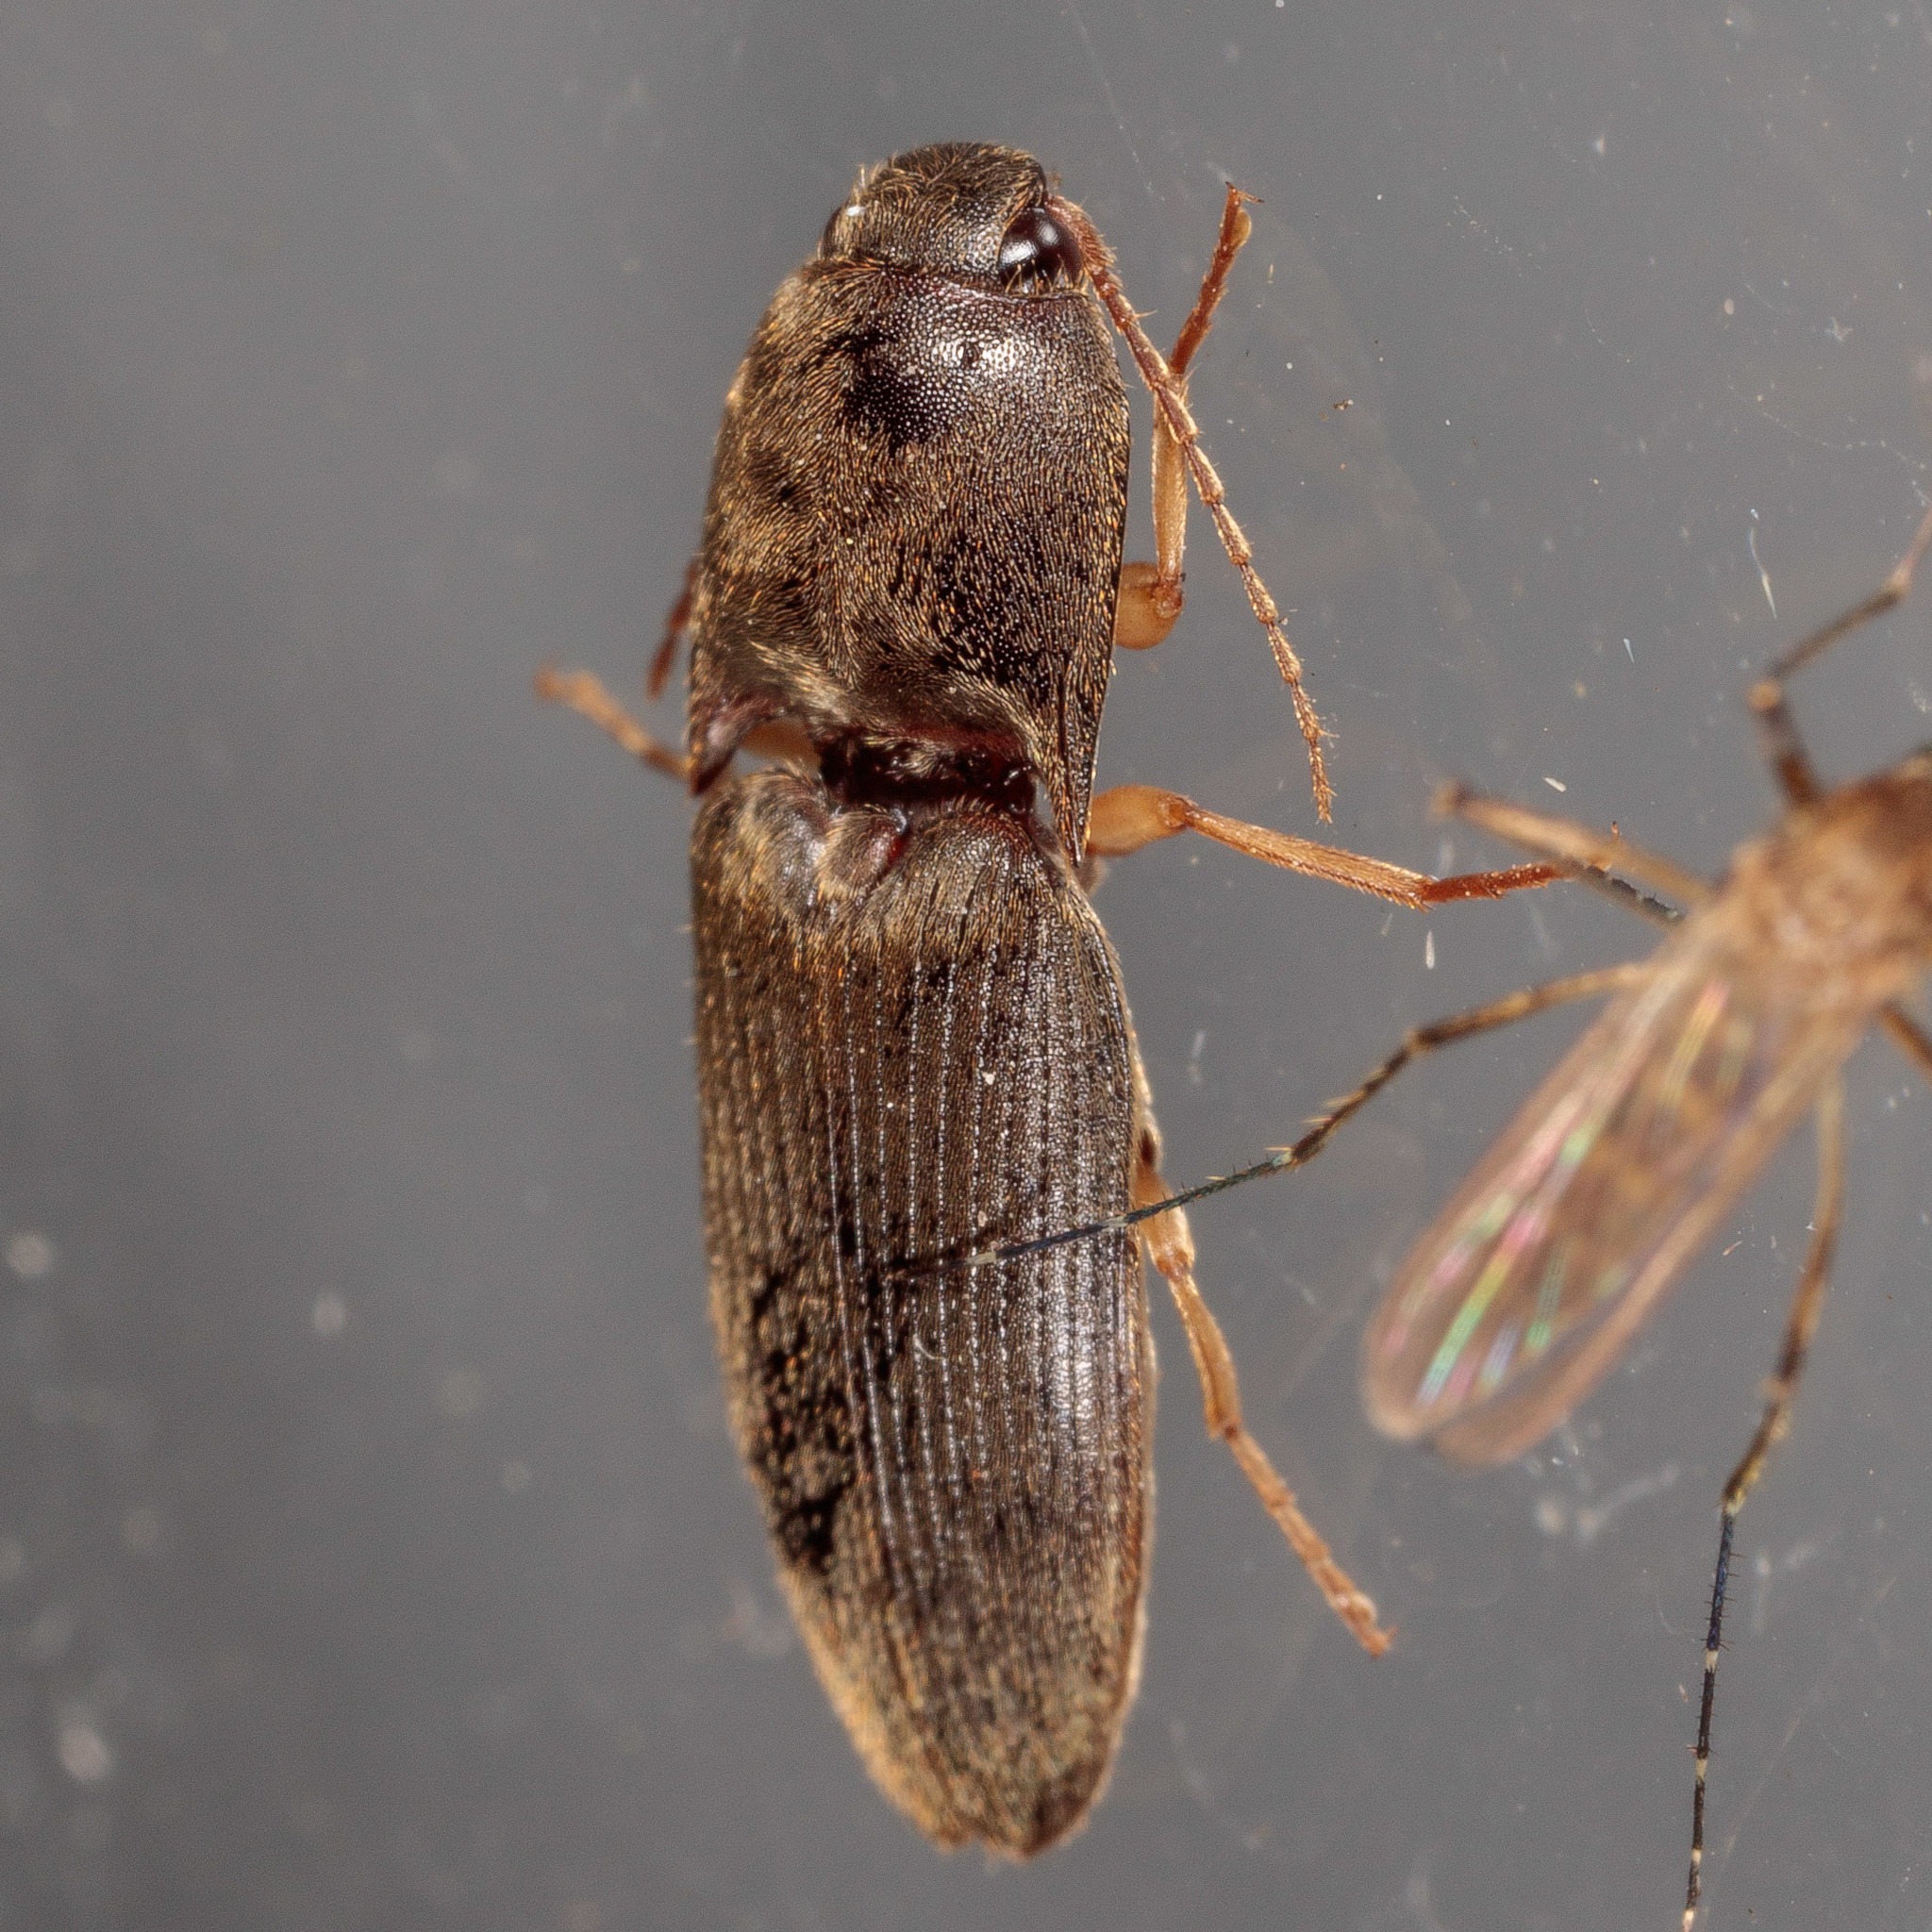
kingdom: Animalia
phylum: Arthropoda
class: Insecta
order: Coleoptera
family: Elateridae
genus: Conoderus
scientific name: Conoderus exsul
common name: Click beetle
